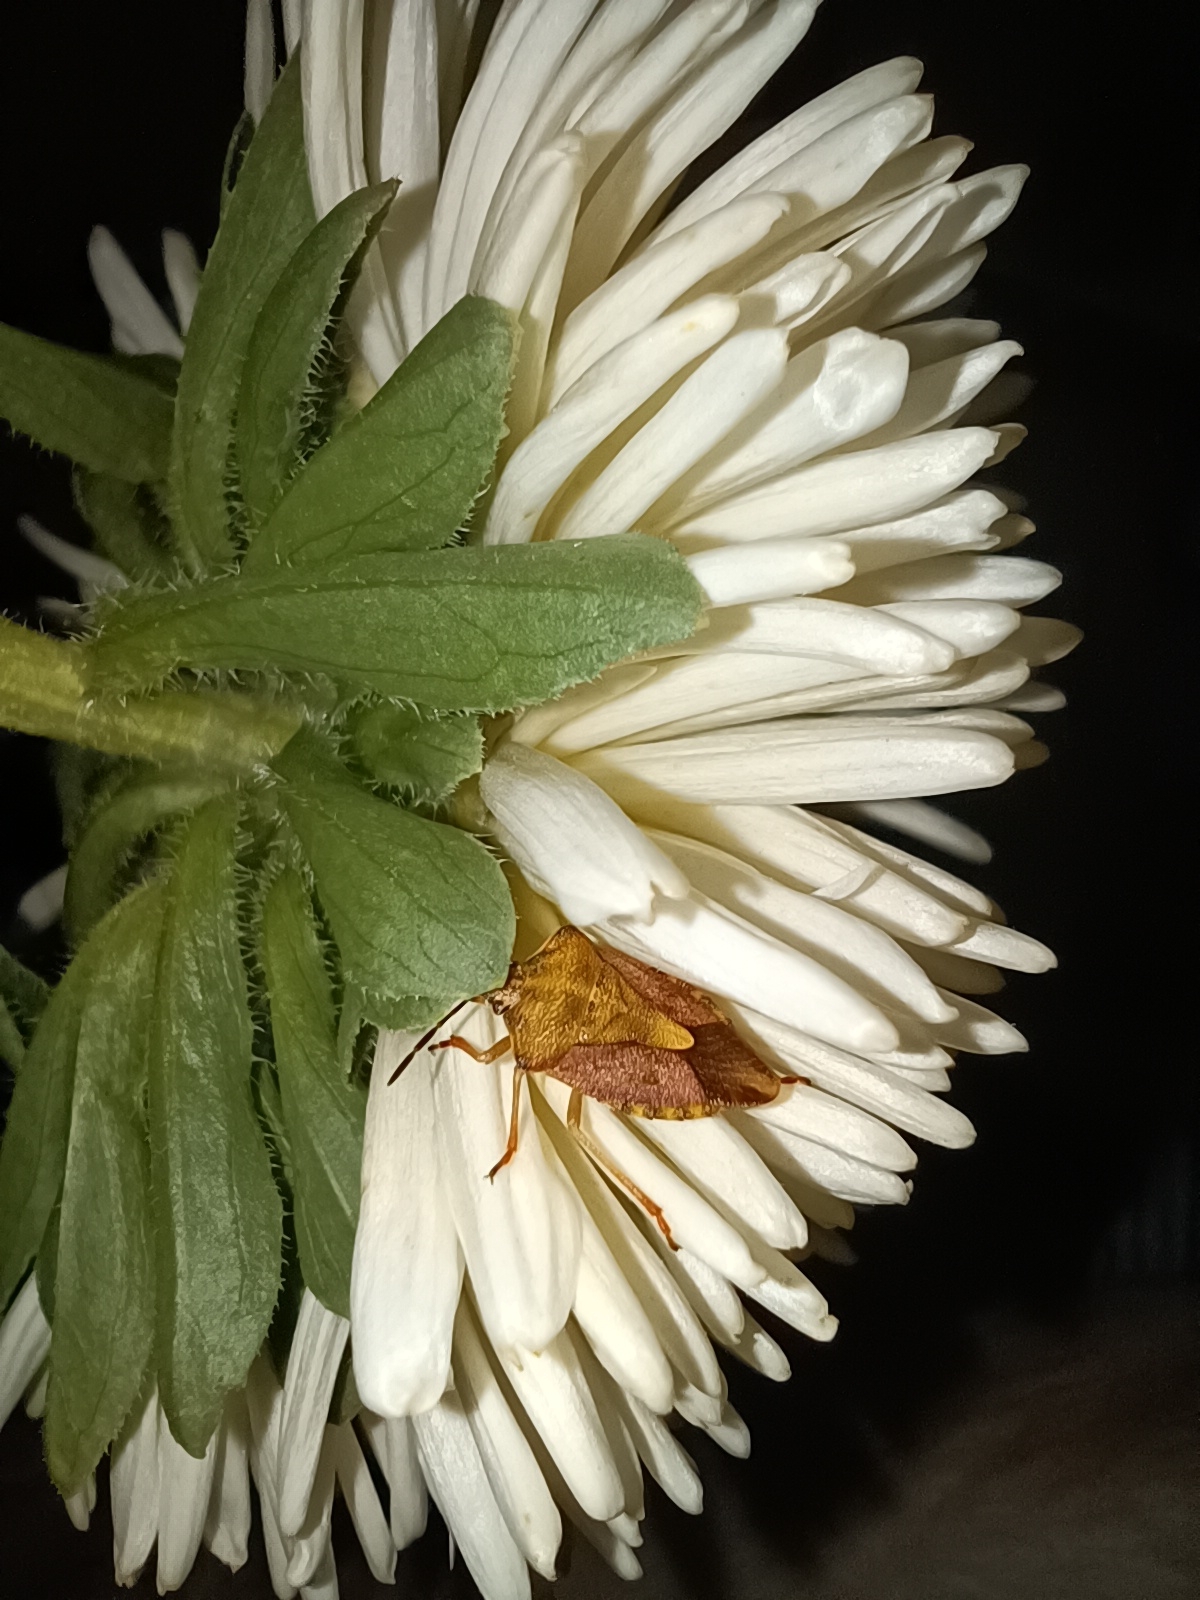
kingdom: Animalia
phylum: Arthropoda
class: Insecta
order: Hemiptera
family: Pentatomidae
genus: Carpocoris
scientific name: Carpocoris purpureipennis
